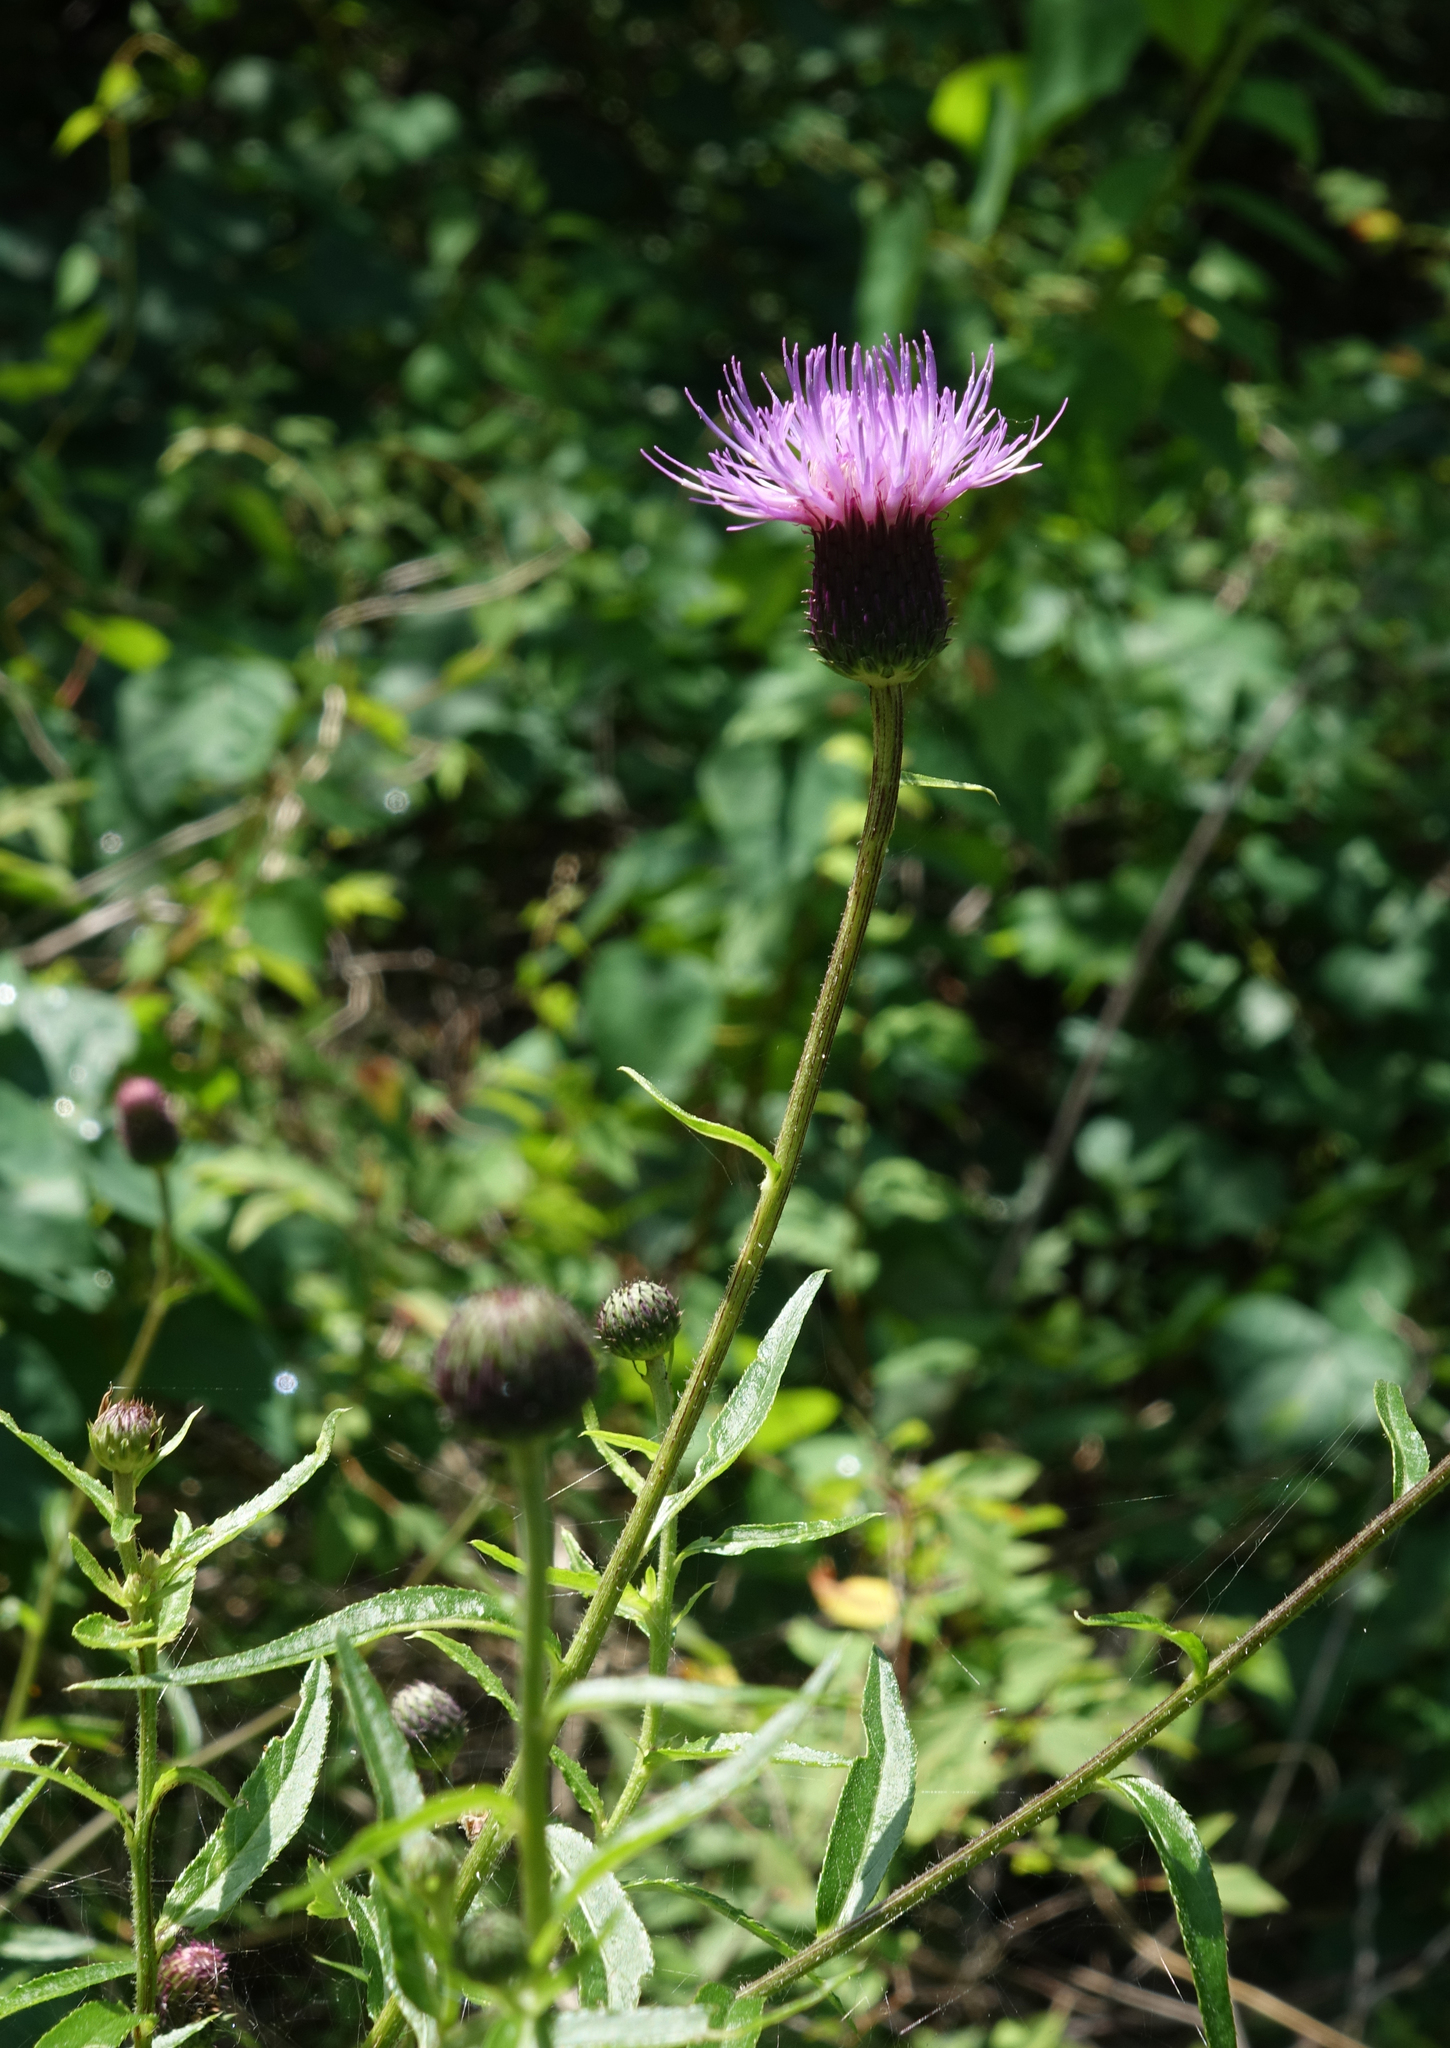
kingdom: Plantae
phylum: Tracheophyta
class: Magnoliopsida
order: Asterales
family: Asteraceae
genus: Cirsium
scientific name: Cirsium serratuloides
